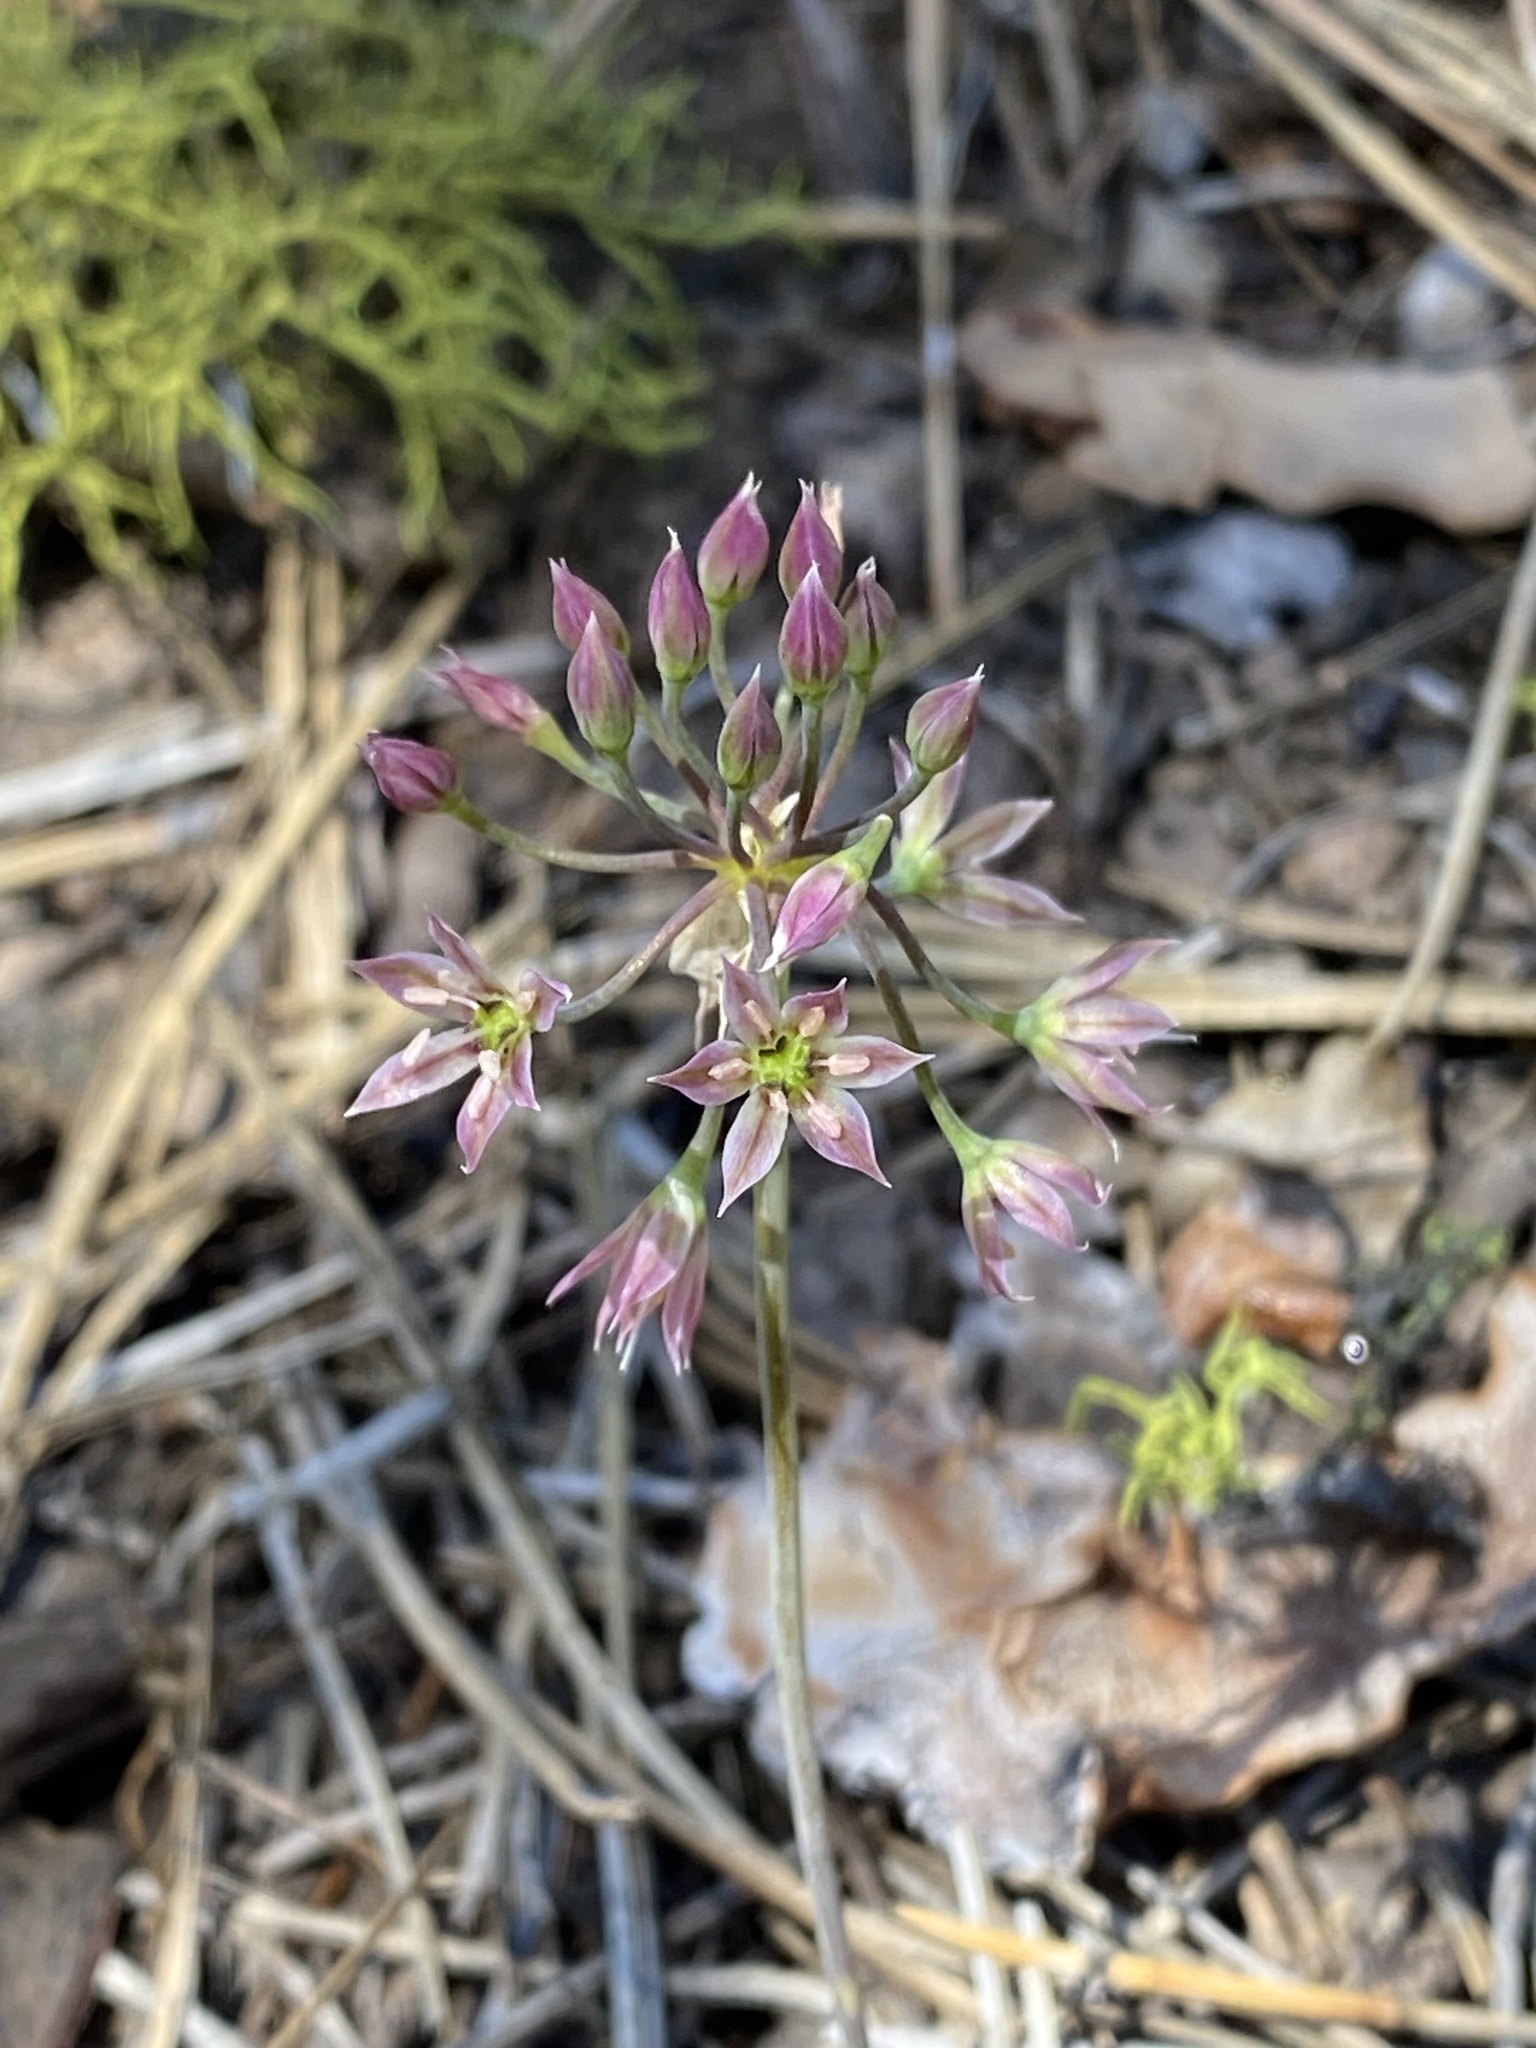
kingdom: Plantae
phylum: Tracheophyta
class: Liliopsida
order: Asparagales
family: Amaryllidaceae
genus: Allium
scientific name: Allium bisceptrum
